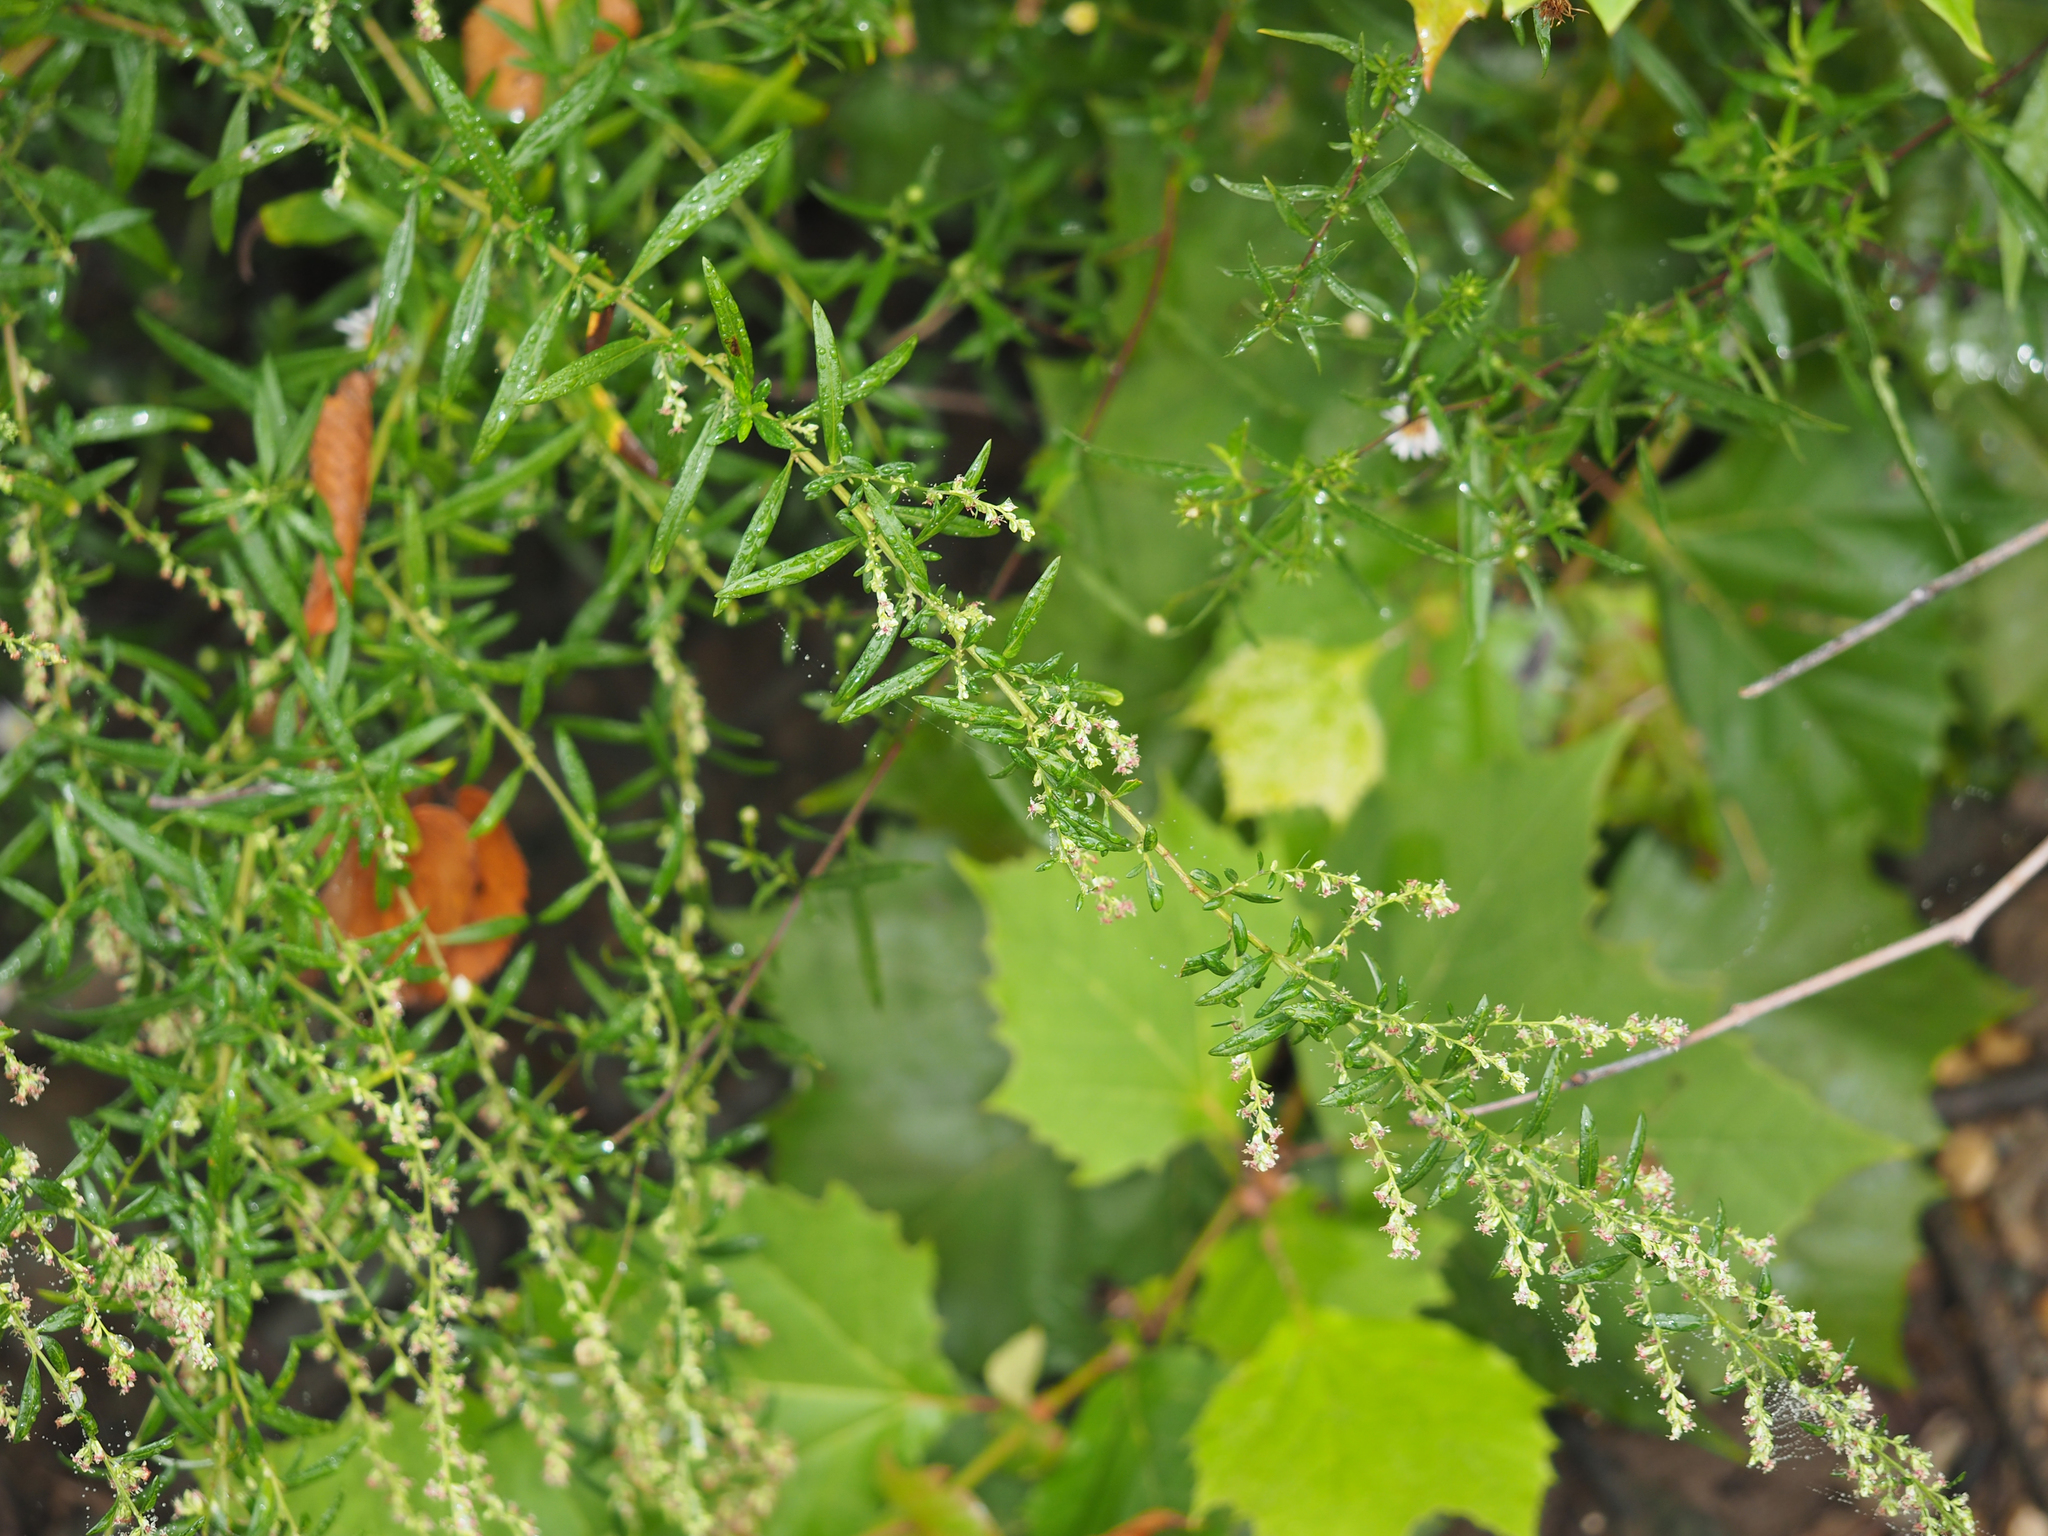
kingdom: Plantae
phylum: Tracheophyta
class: Magnoliopsida
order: Asterales
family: Asteraceae
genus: Artemisia
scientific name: Artemisia vulgaris
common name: Mugwort
